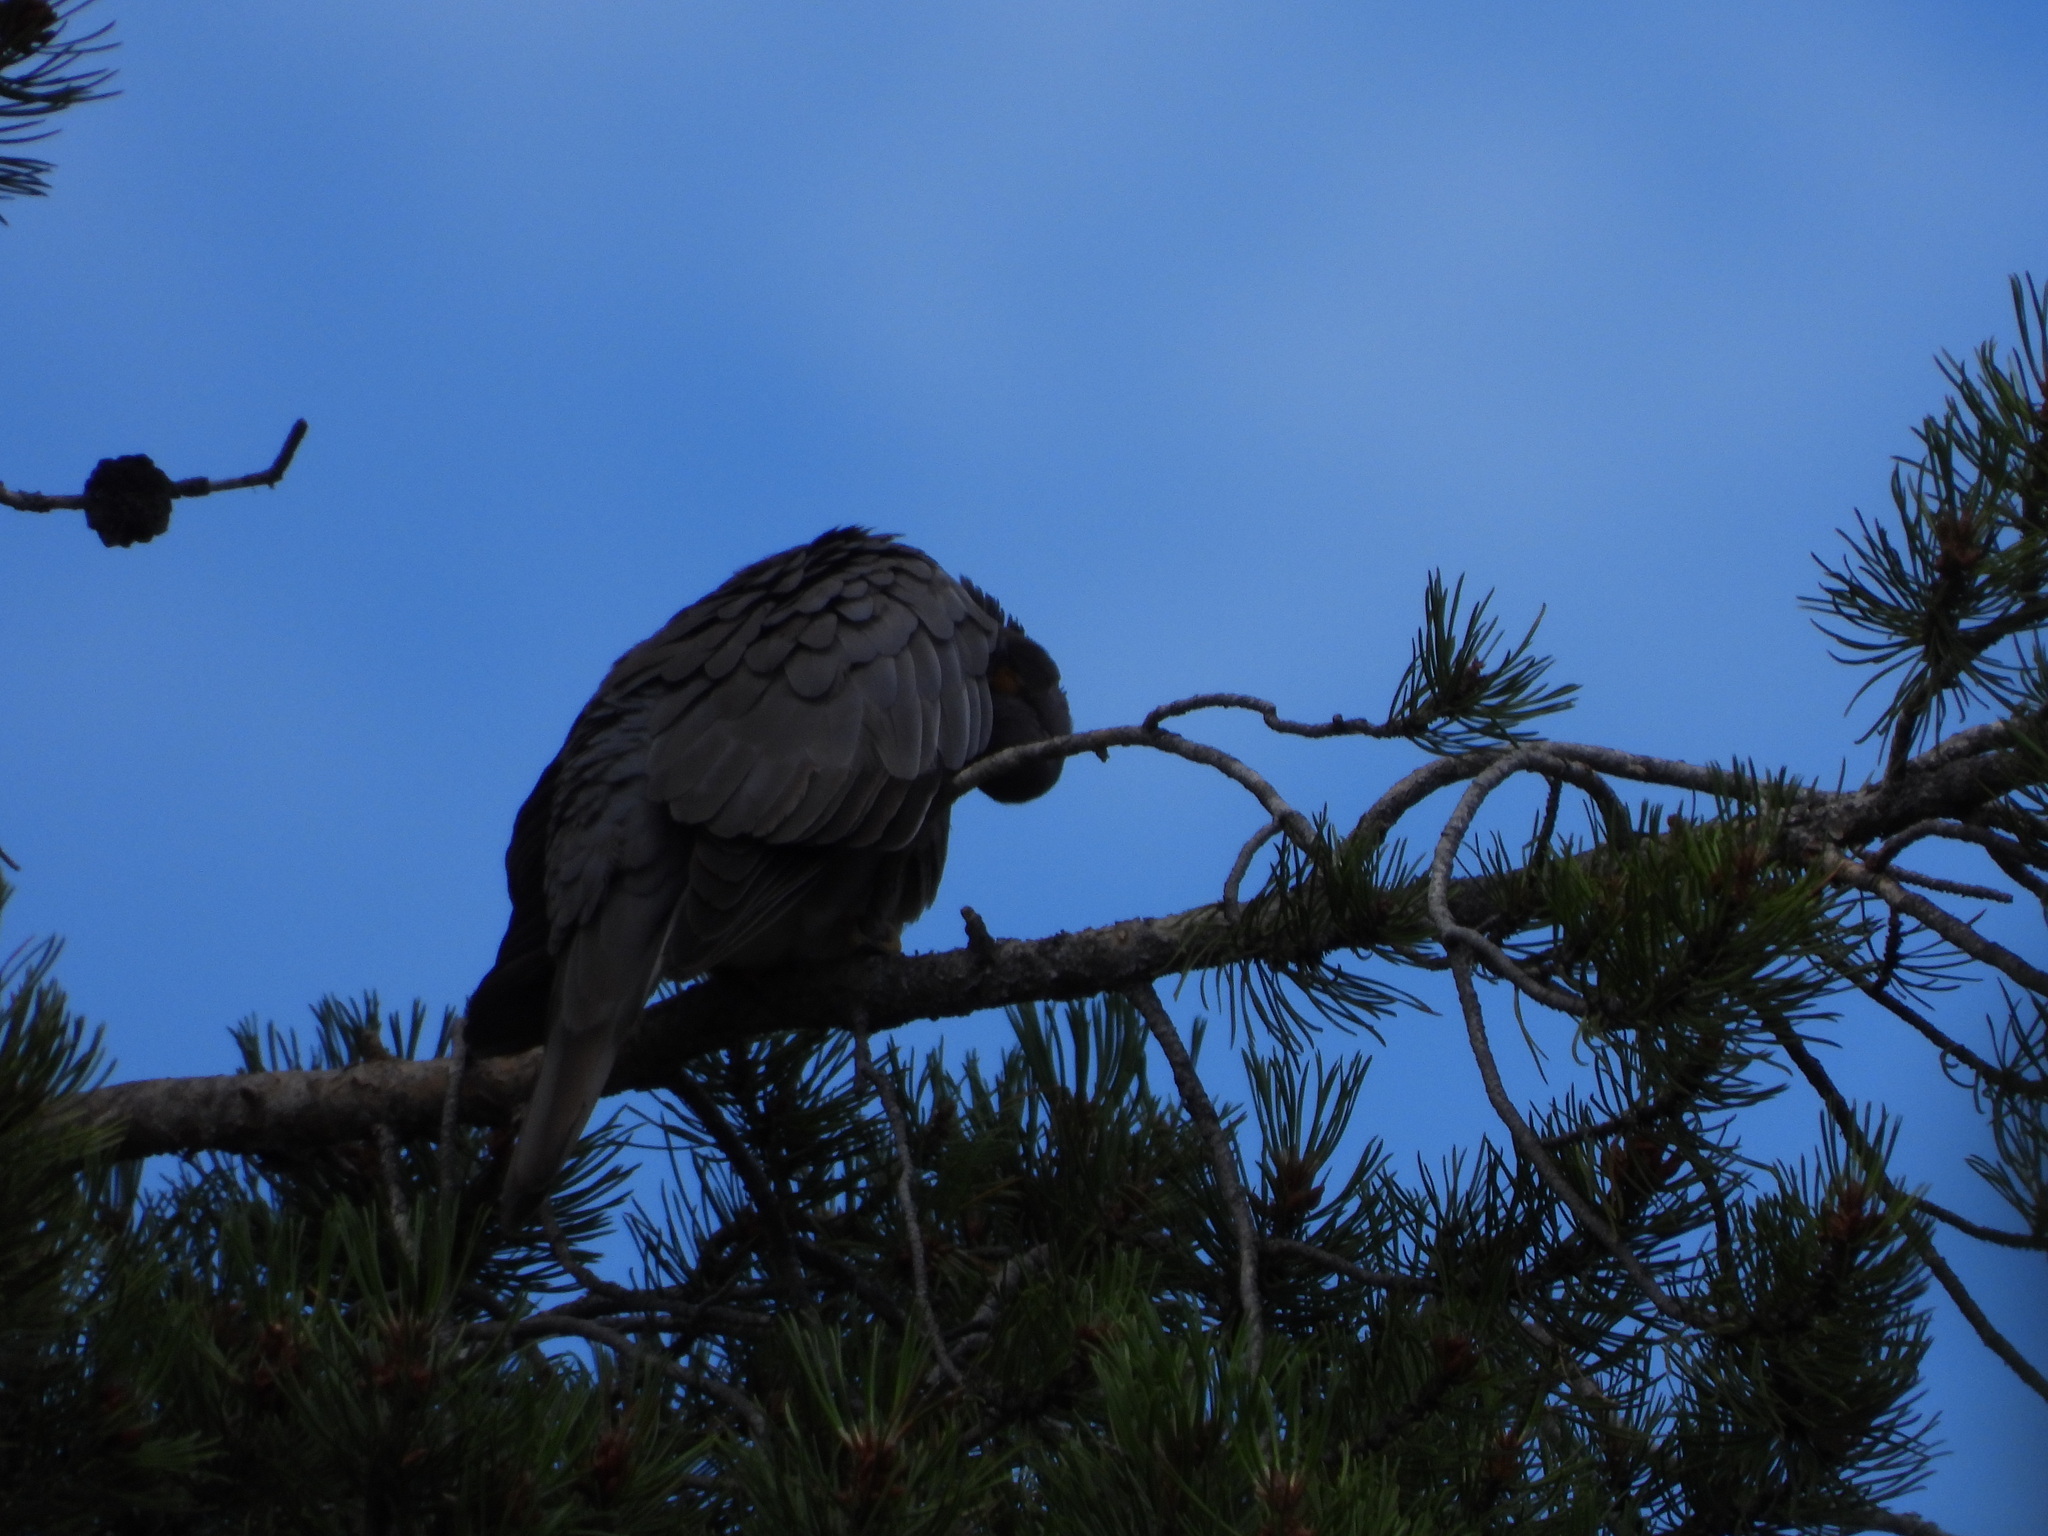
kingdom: Animalia
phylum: Chordata
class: Aves
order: Columbiformes
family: Columbidae
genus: Patagioenas
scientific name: Patagioenas fasciata
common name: Band-tailed pigeon
